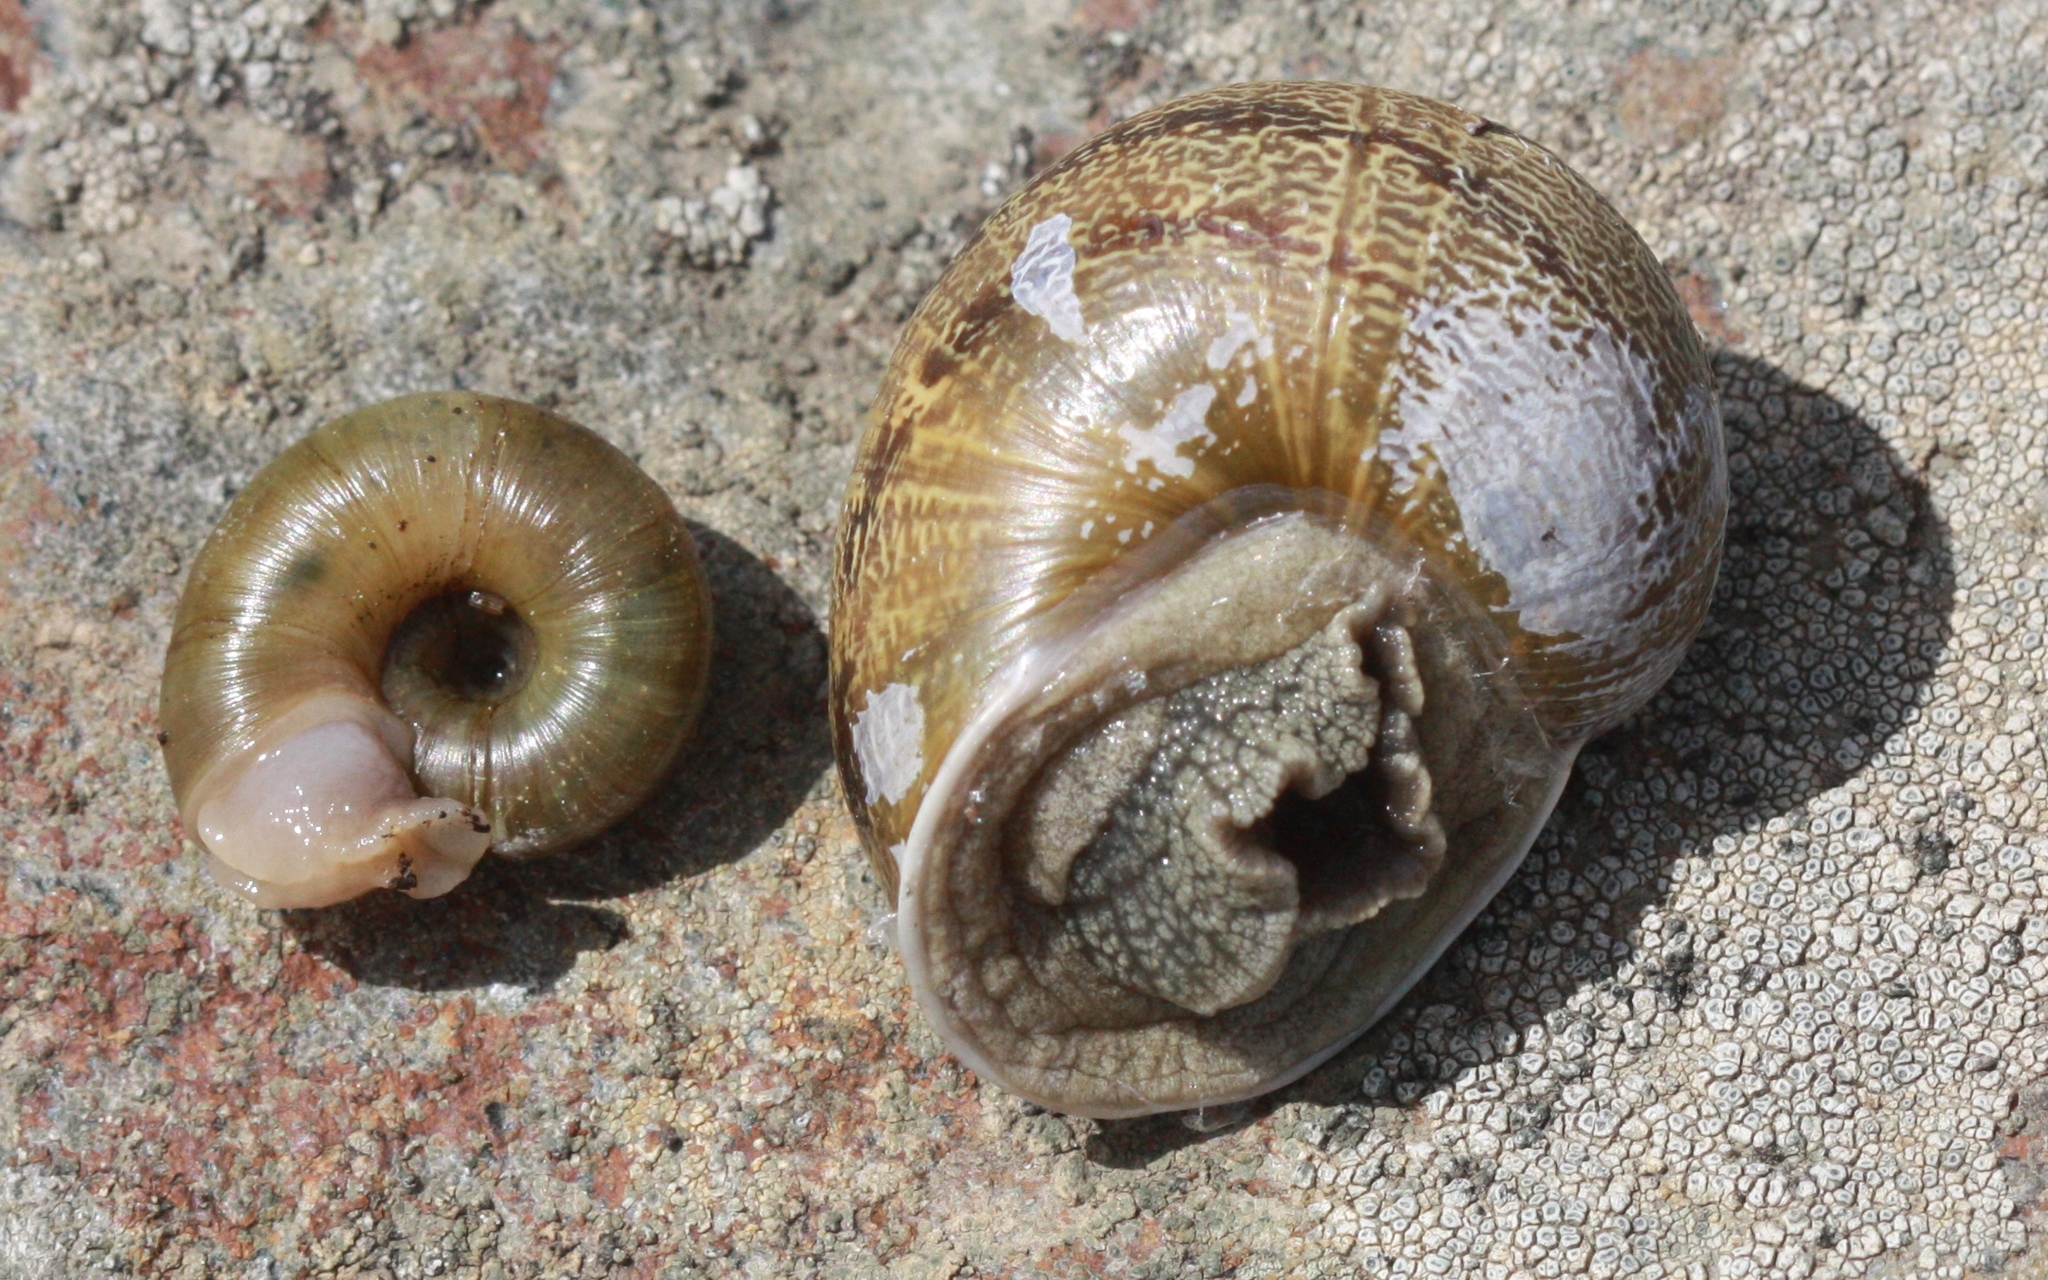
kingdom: Animalia
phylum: Mollusca
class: Gastropoda
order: Stylommatophora
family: Haplotrematidae
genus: Haplotrema
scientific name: Haplotrema minimum
